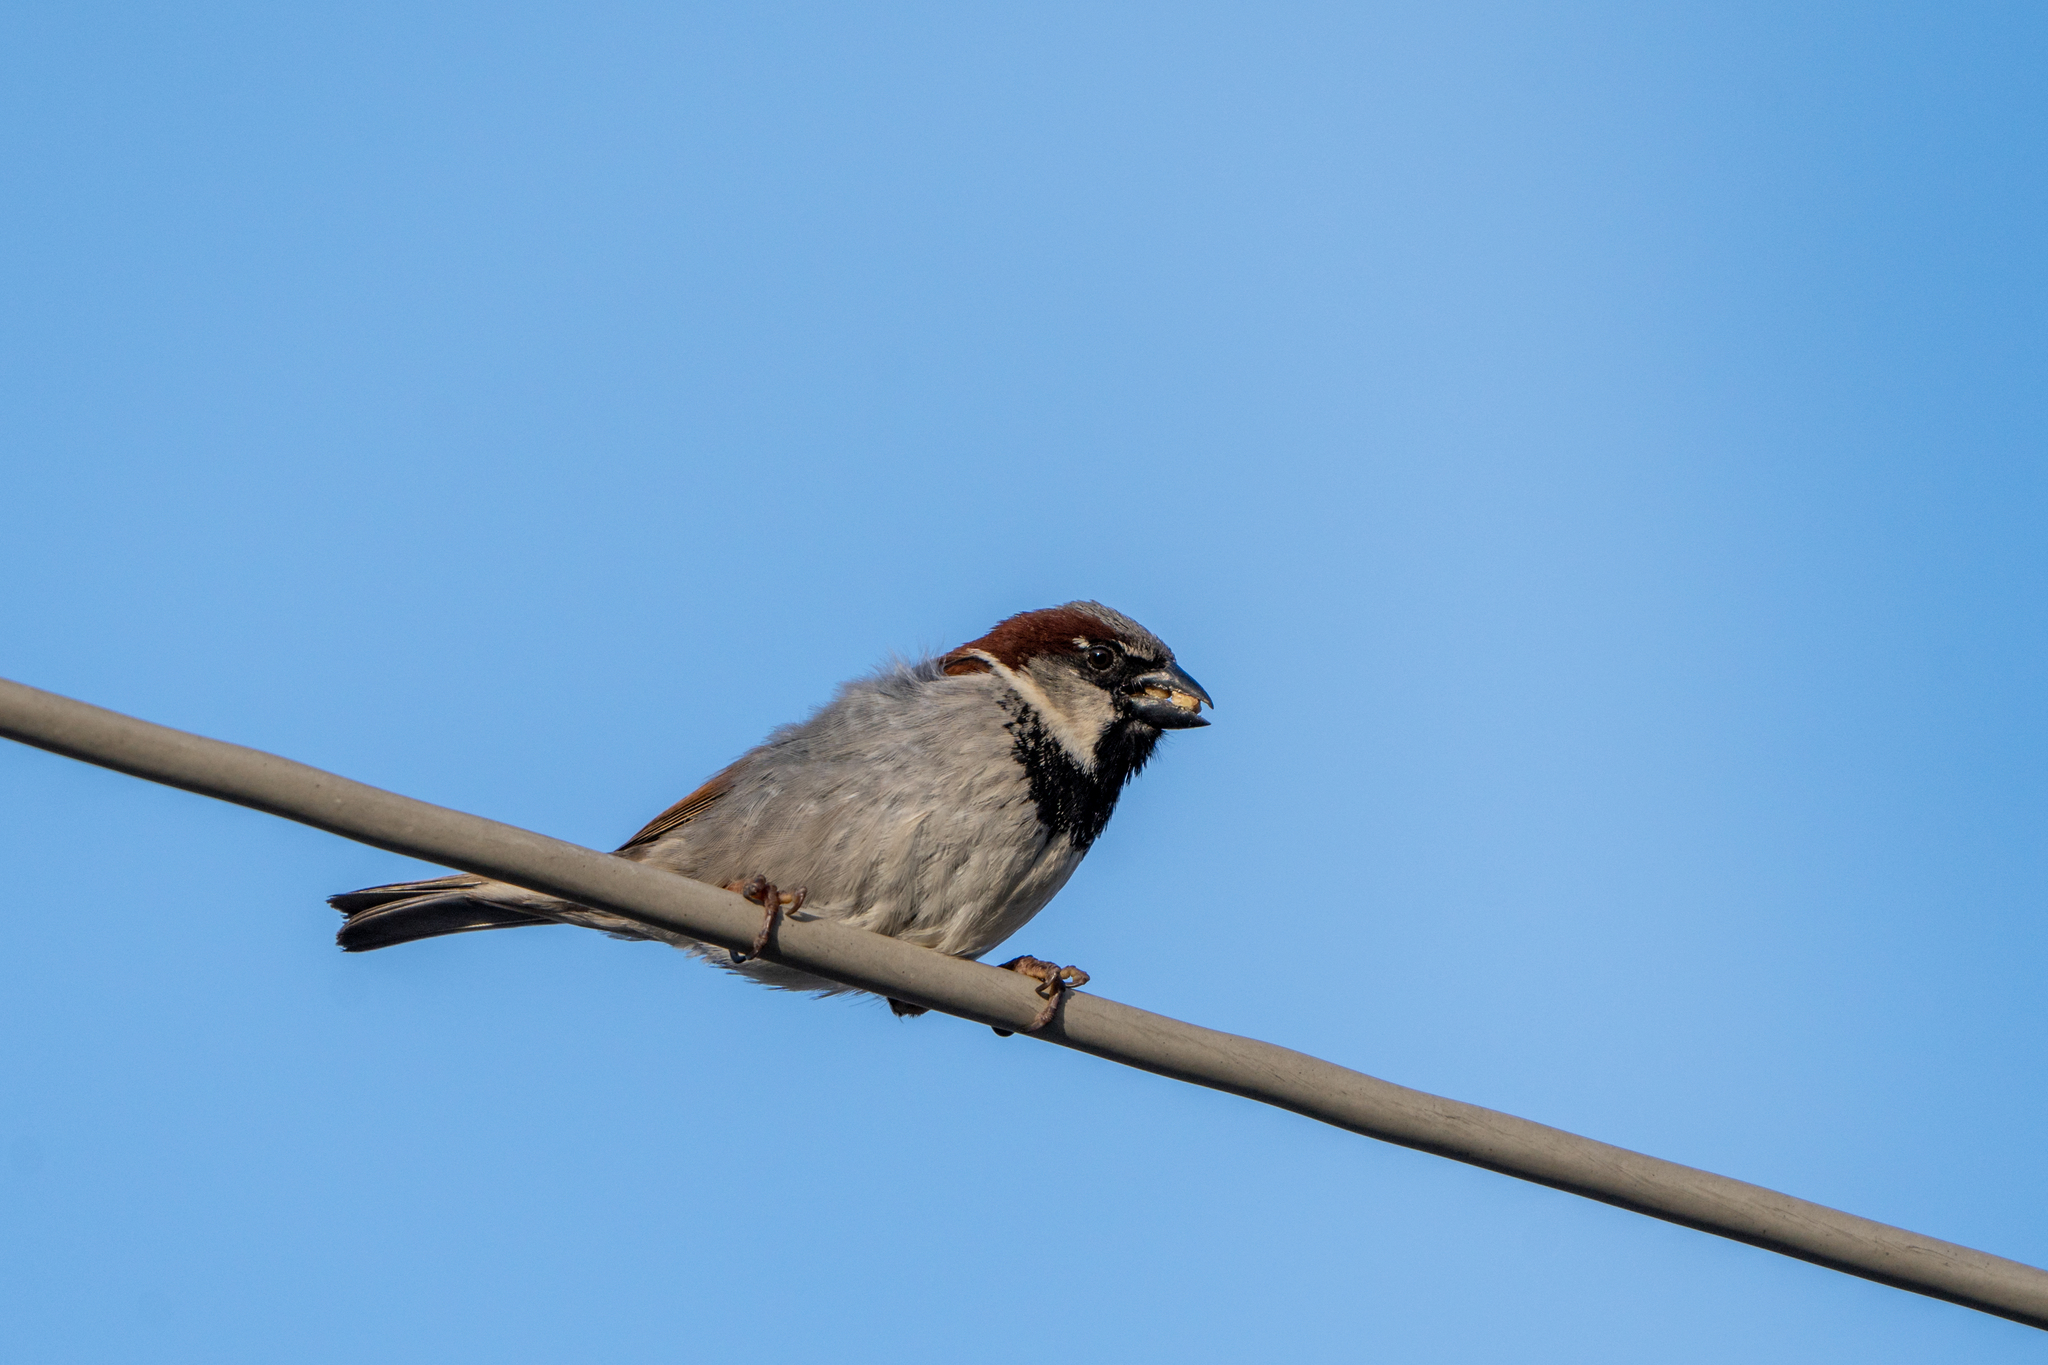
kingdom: Animalia
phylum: Chordata
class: Aves
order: Passeriformes
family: Passeridae
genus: Passer
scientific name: Passer domesticus
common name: House sparrow
